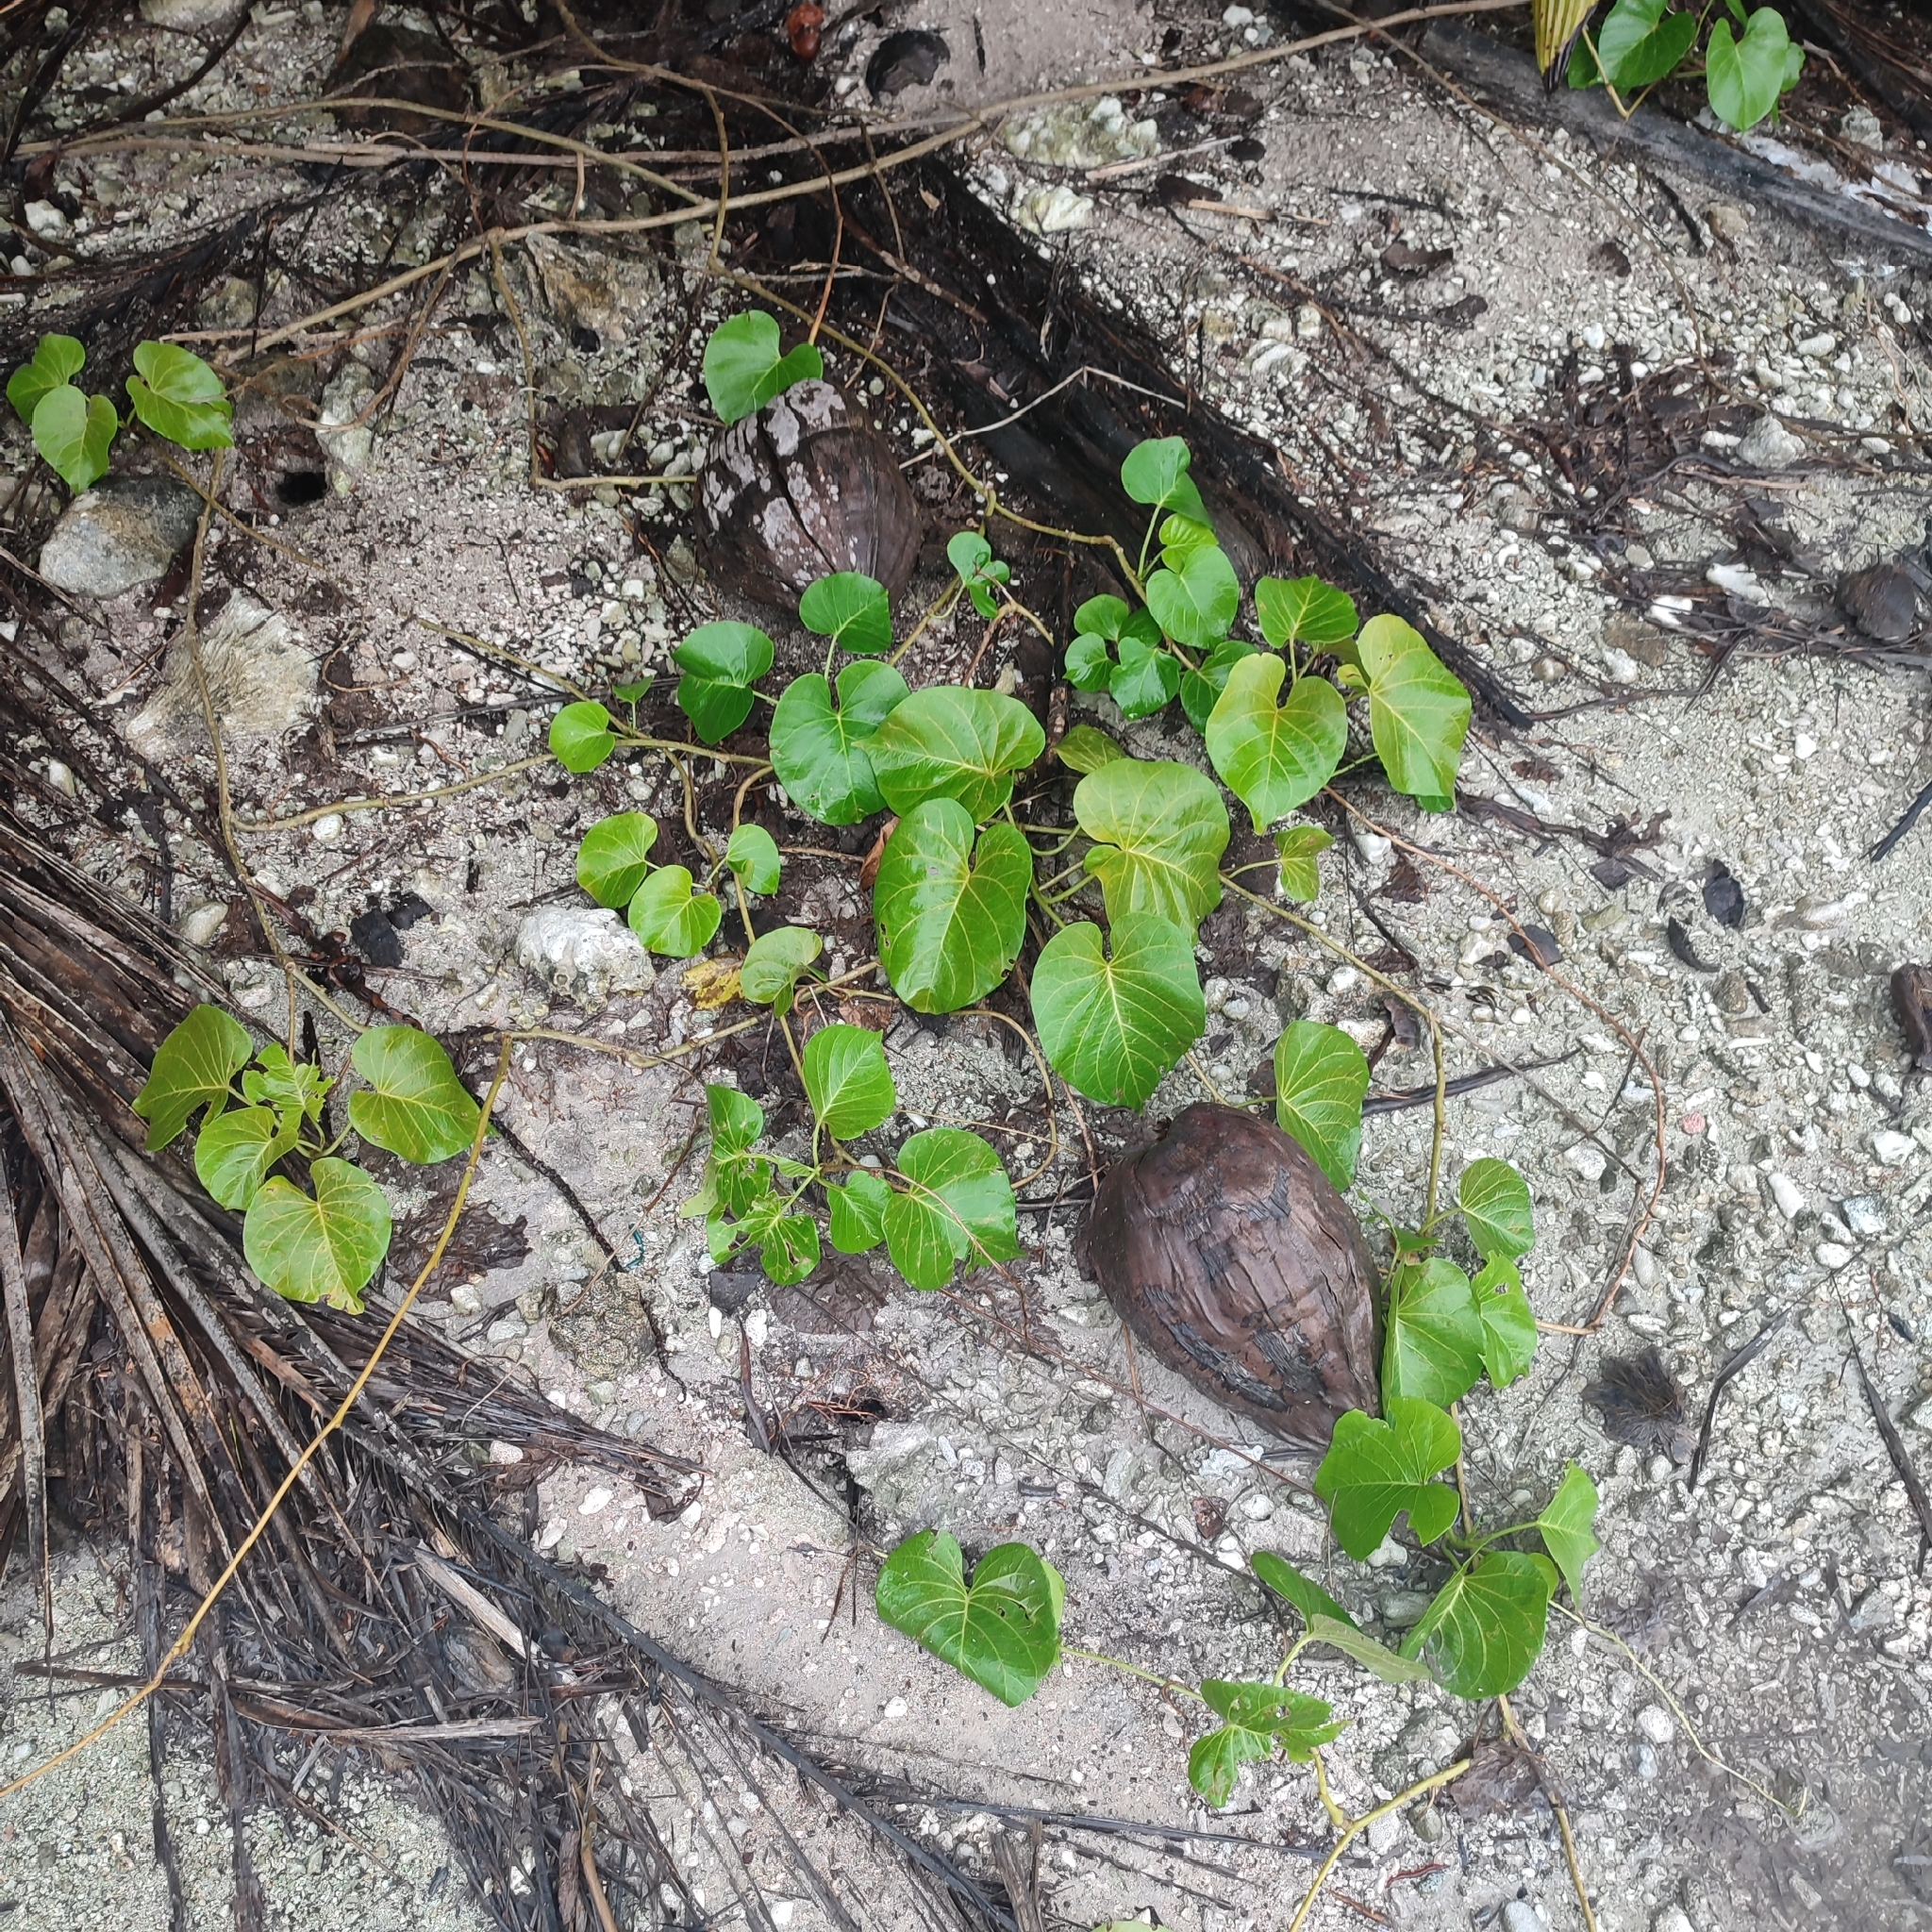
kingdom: Plantae
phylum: Tracheophyta
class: Magnoliopsida
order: Solanales
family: Convolvulaceae
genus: Ipomoea
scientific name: Ipomoea violacea
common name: Beach moonflower
